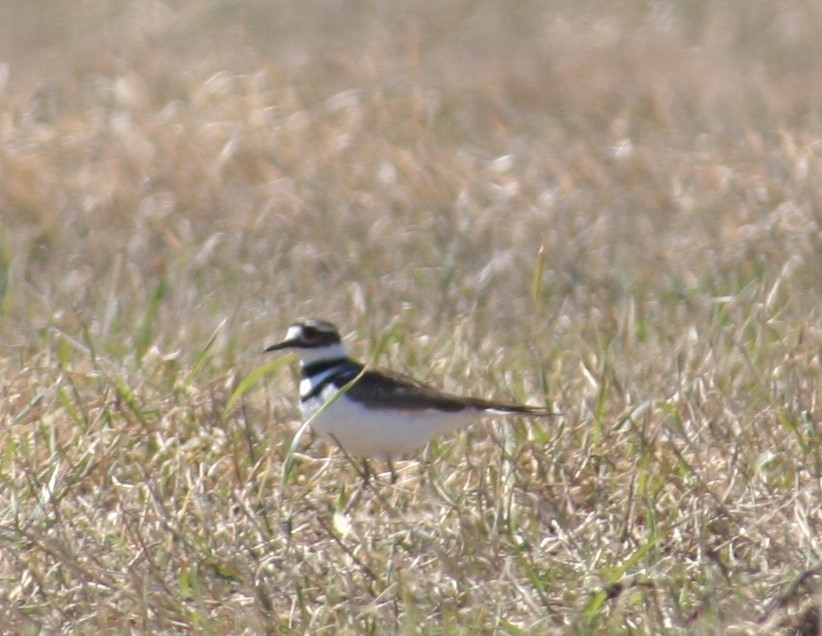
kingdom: Animalia
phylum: Chordata
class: Aves
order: Charadriiformes
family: Charadriidae
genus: Charadrius
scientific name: Charadrius vociferus
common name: Killdeer
